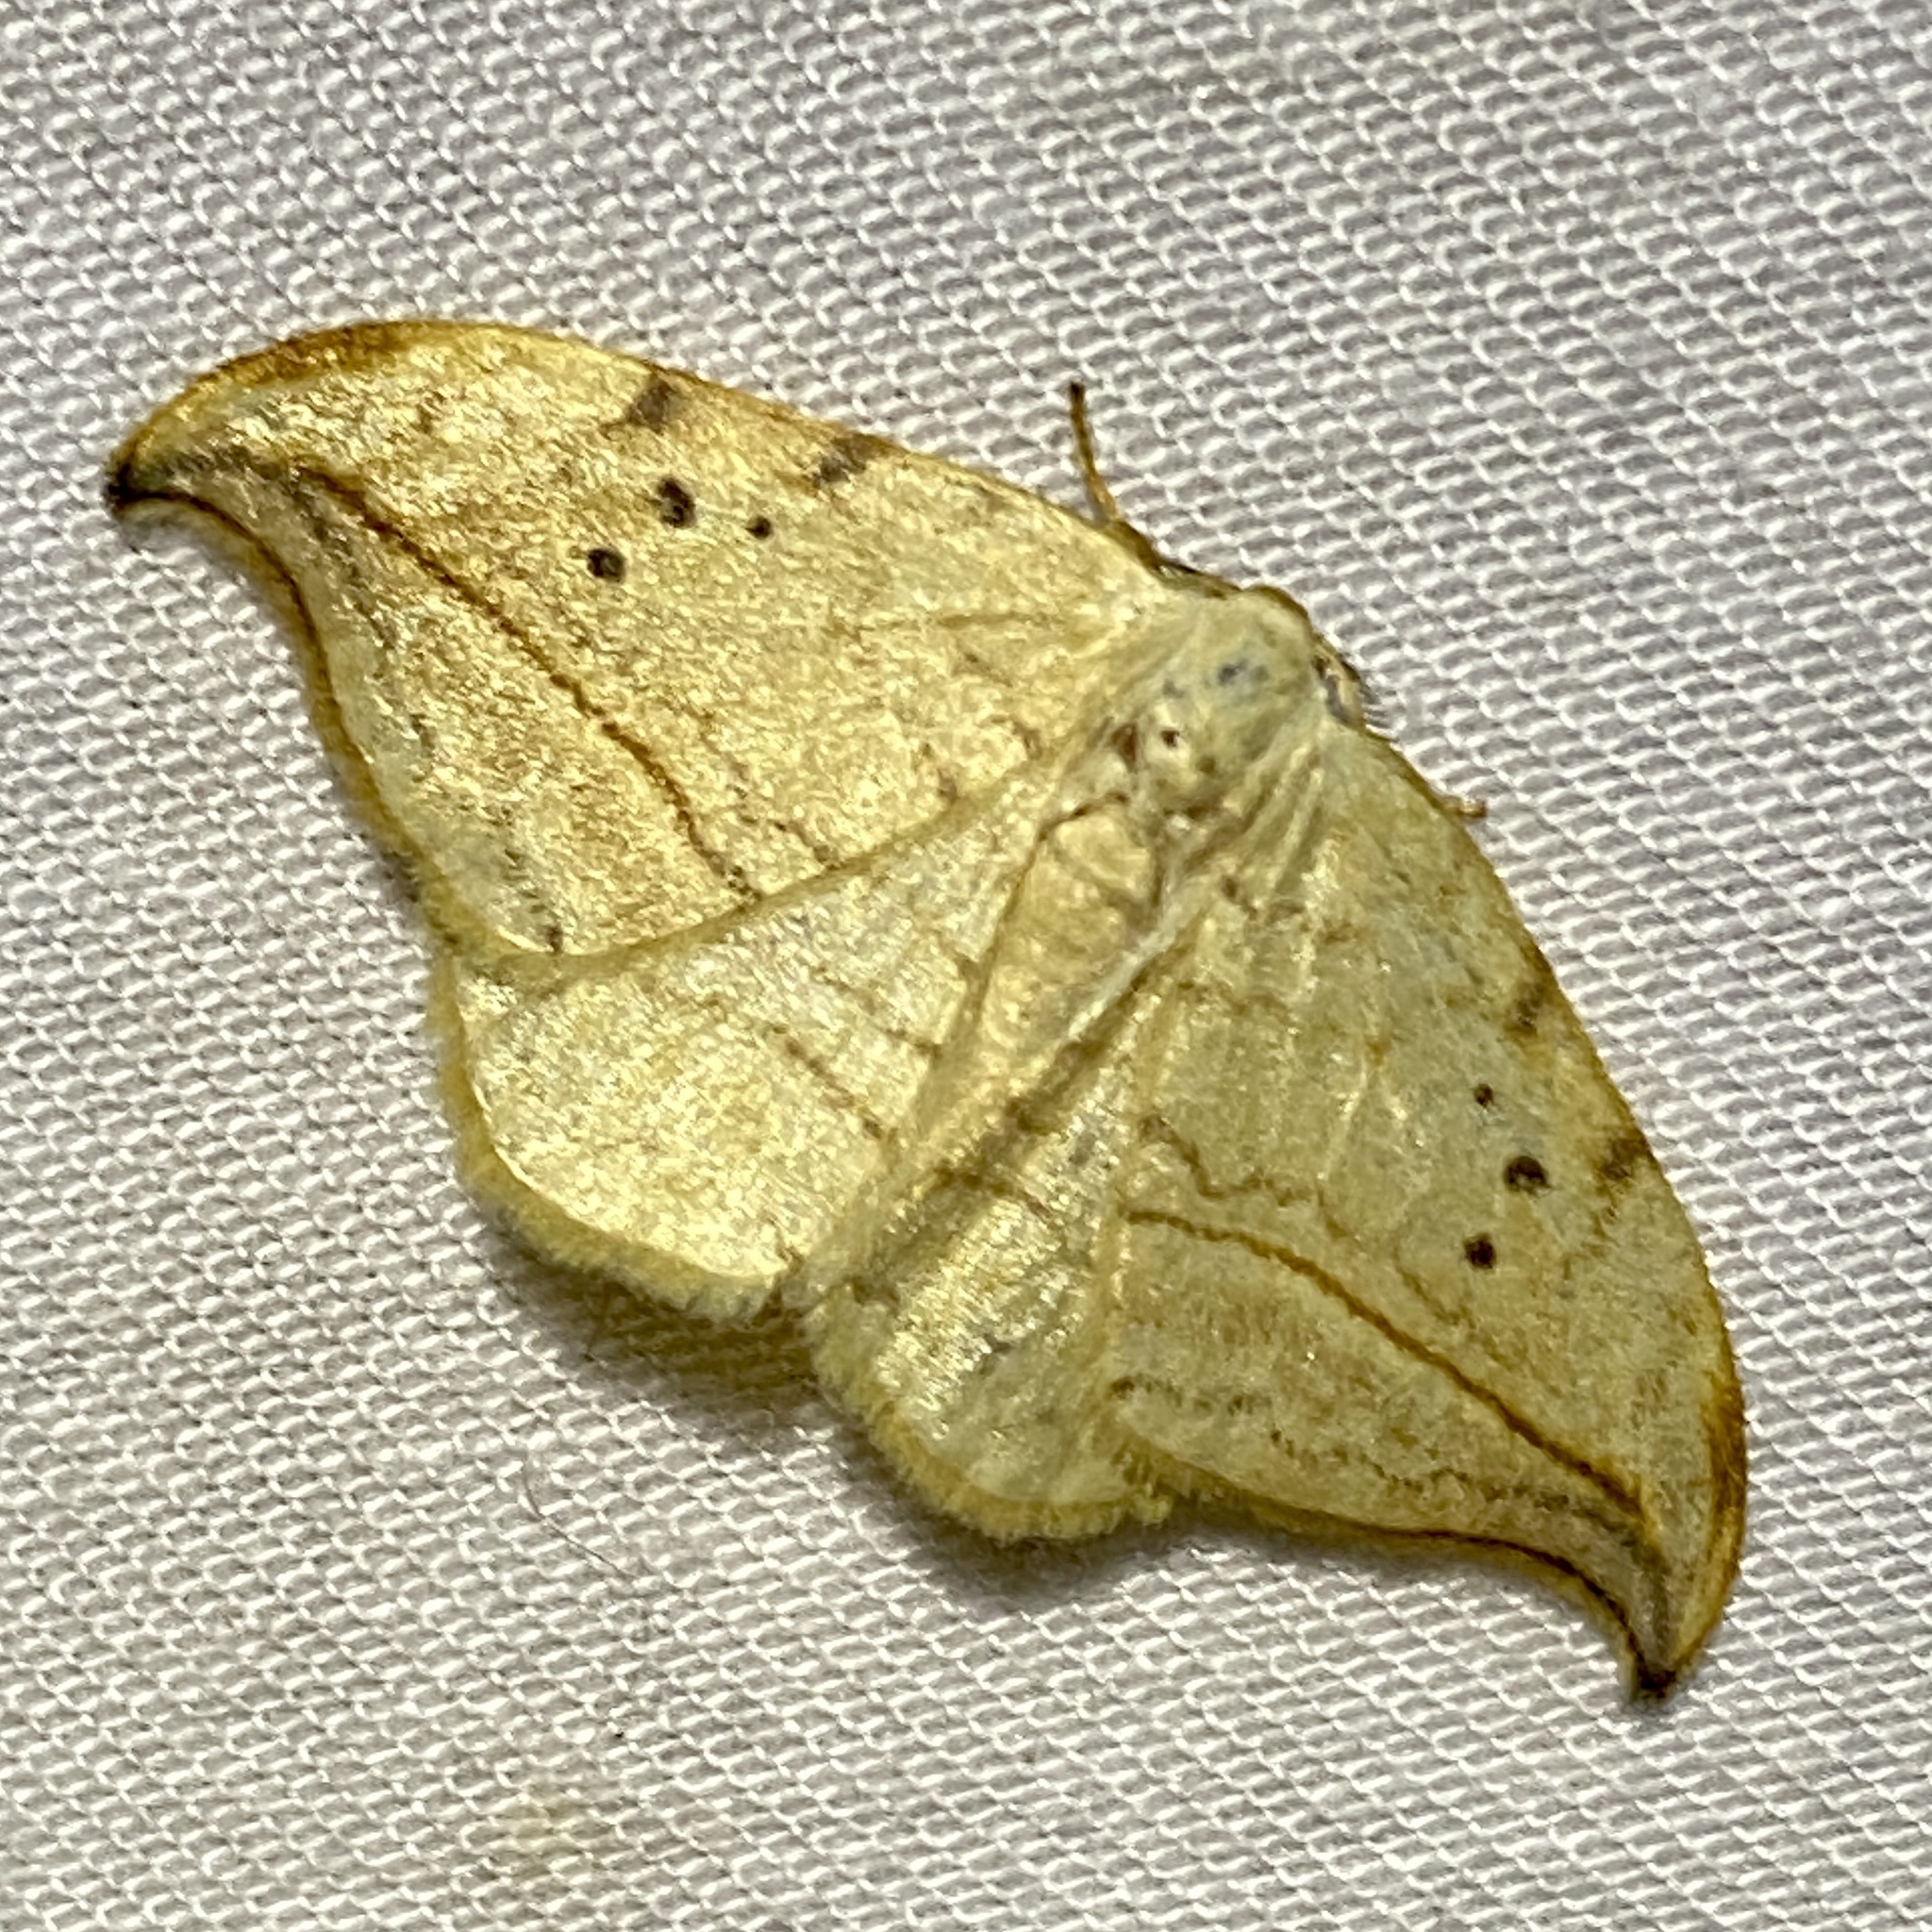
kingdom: Animalia
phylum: Arthropoda
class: Insecta
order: Lepidoptera
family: Drepanidae
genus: Drepana
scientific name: Drepana arcuata
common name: Arched hooktip moth
